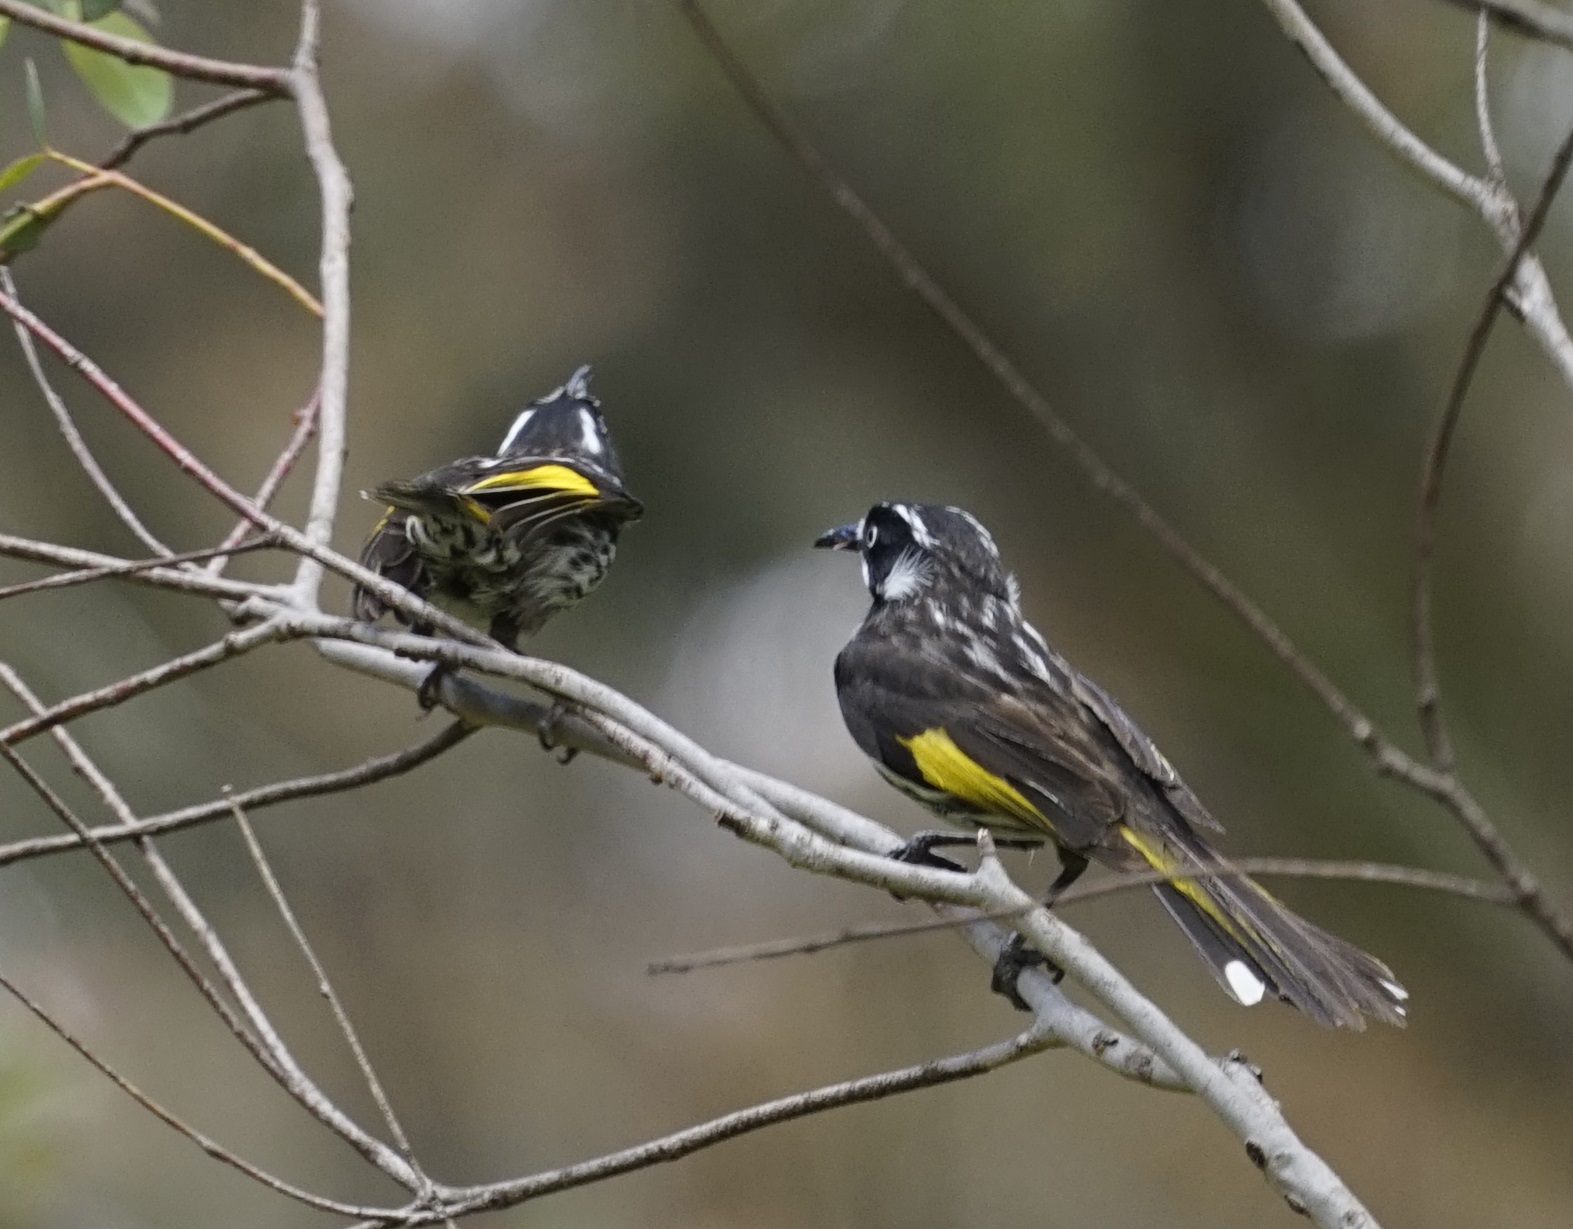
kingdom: Animalia
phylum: Chordata
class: Aves
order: Passeriformes
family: Meliphagidae
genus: Phylidonyris
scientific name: Phylidonyris novaehollandiae
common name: New holland honeyeater
